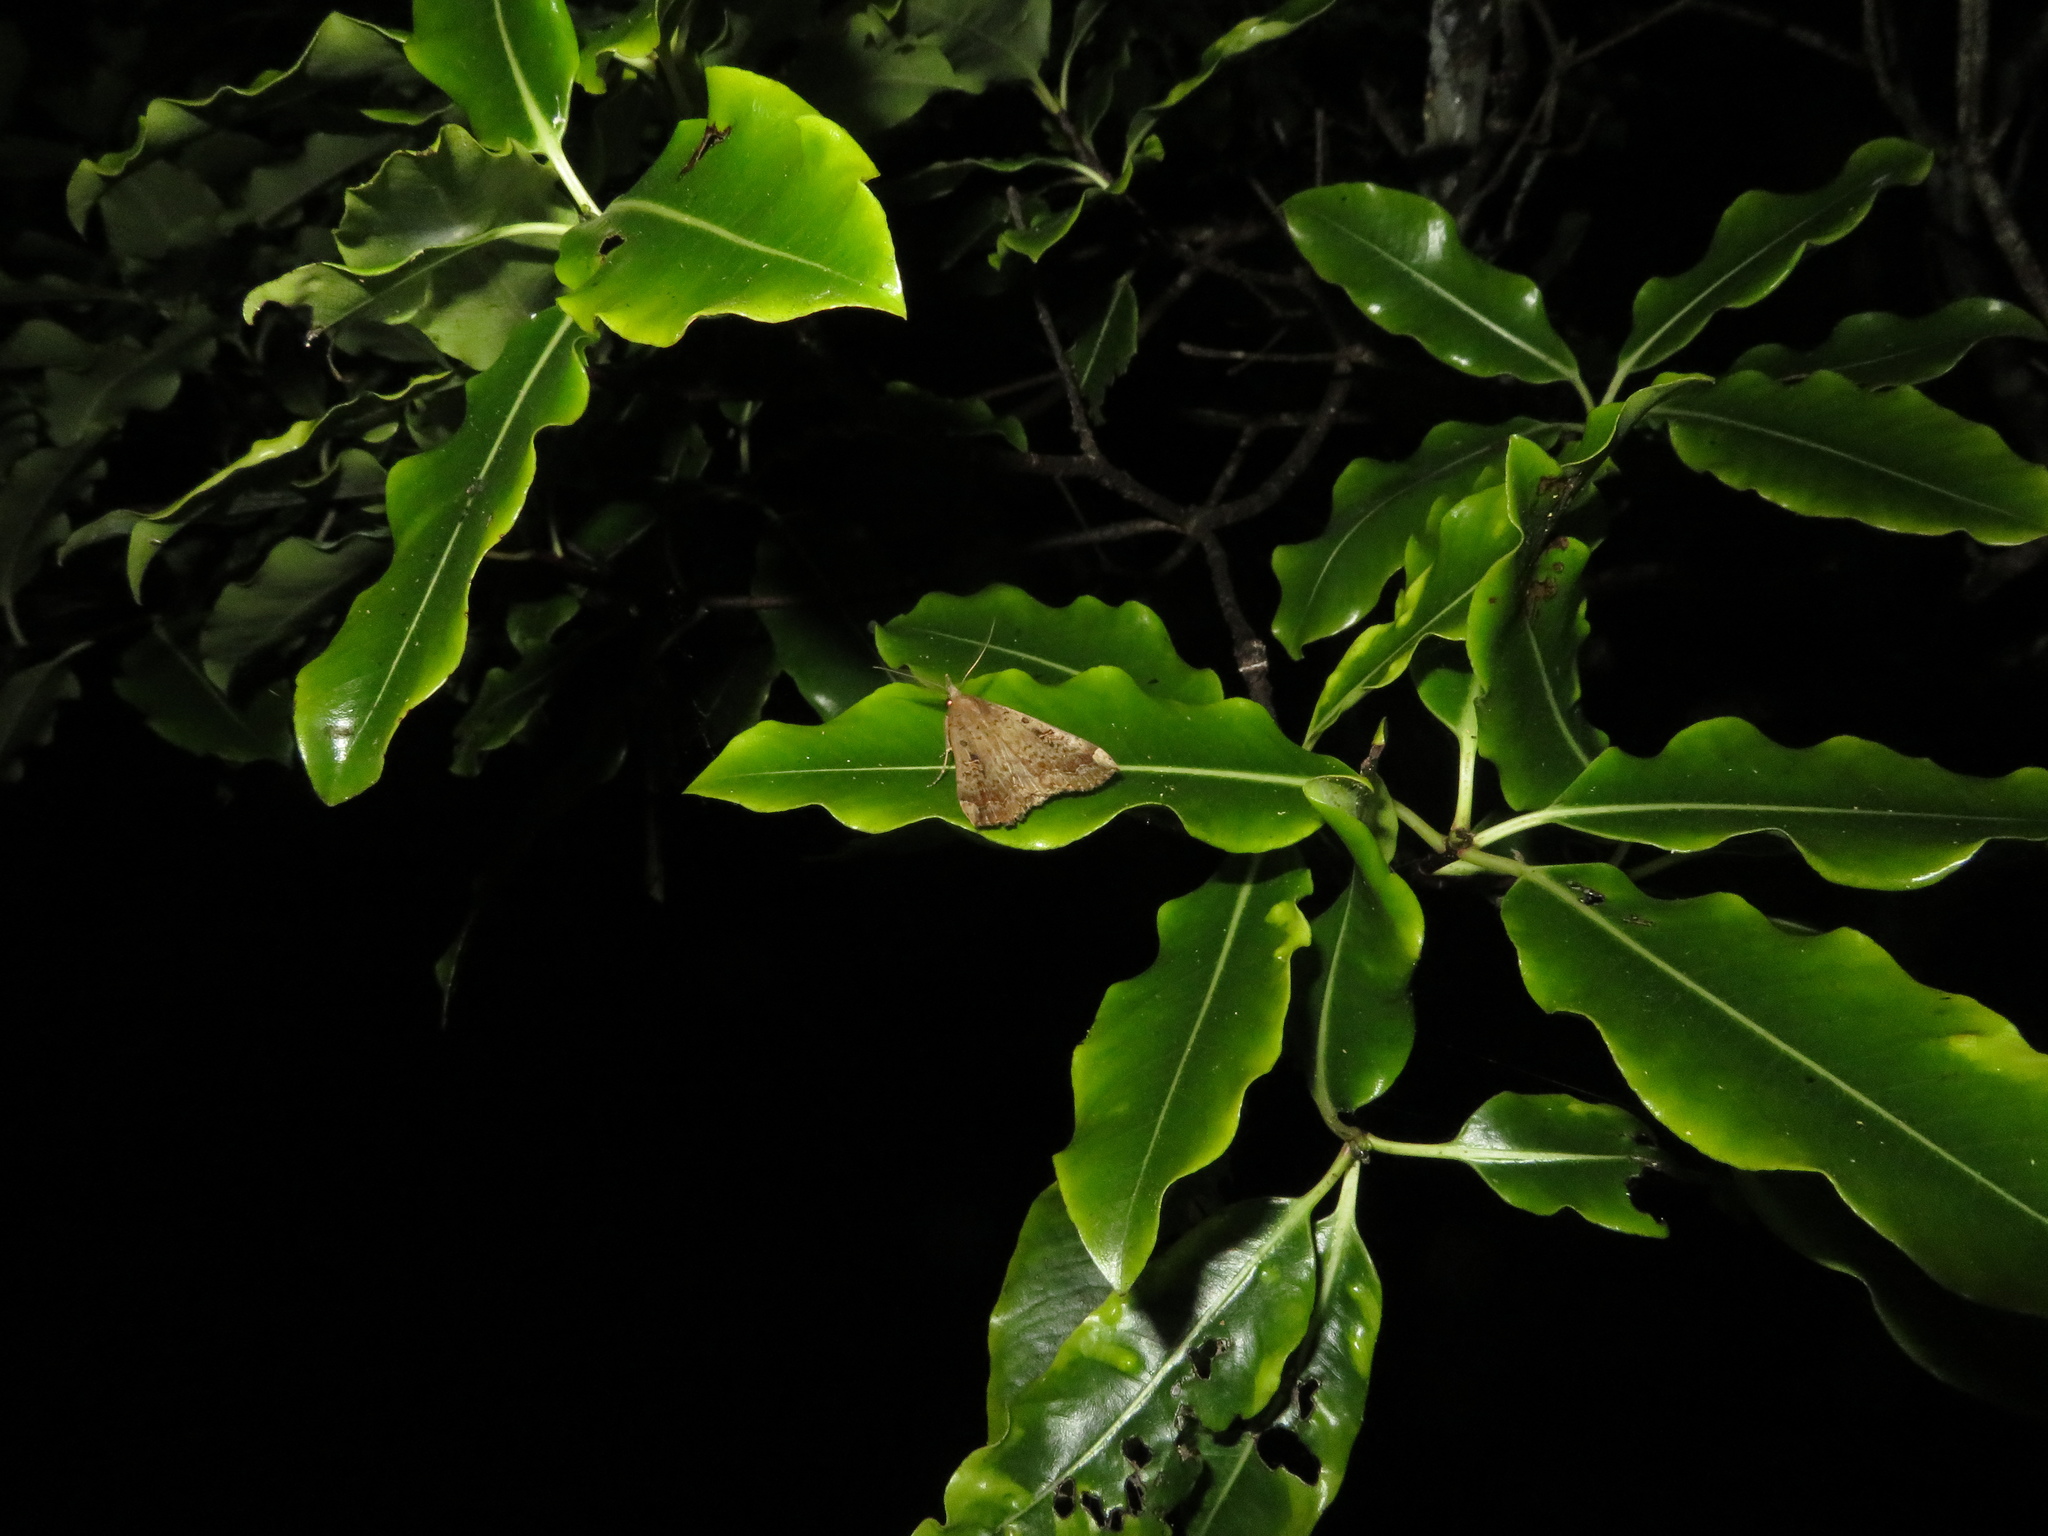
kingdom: Animalia
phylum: Arthropoda
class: Insecta
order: Lepidoptera
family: Erebidae
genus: Rhapsa
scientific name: Rhapsa scotosialis
